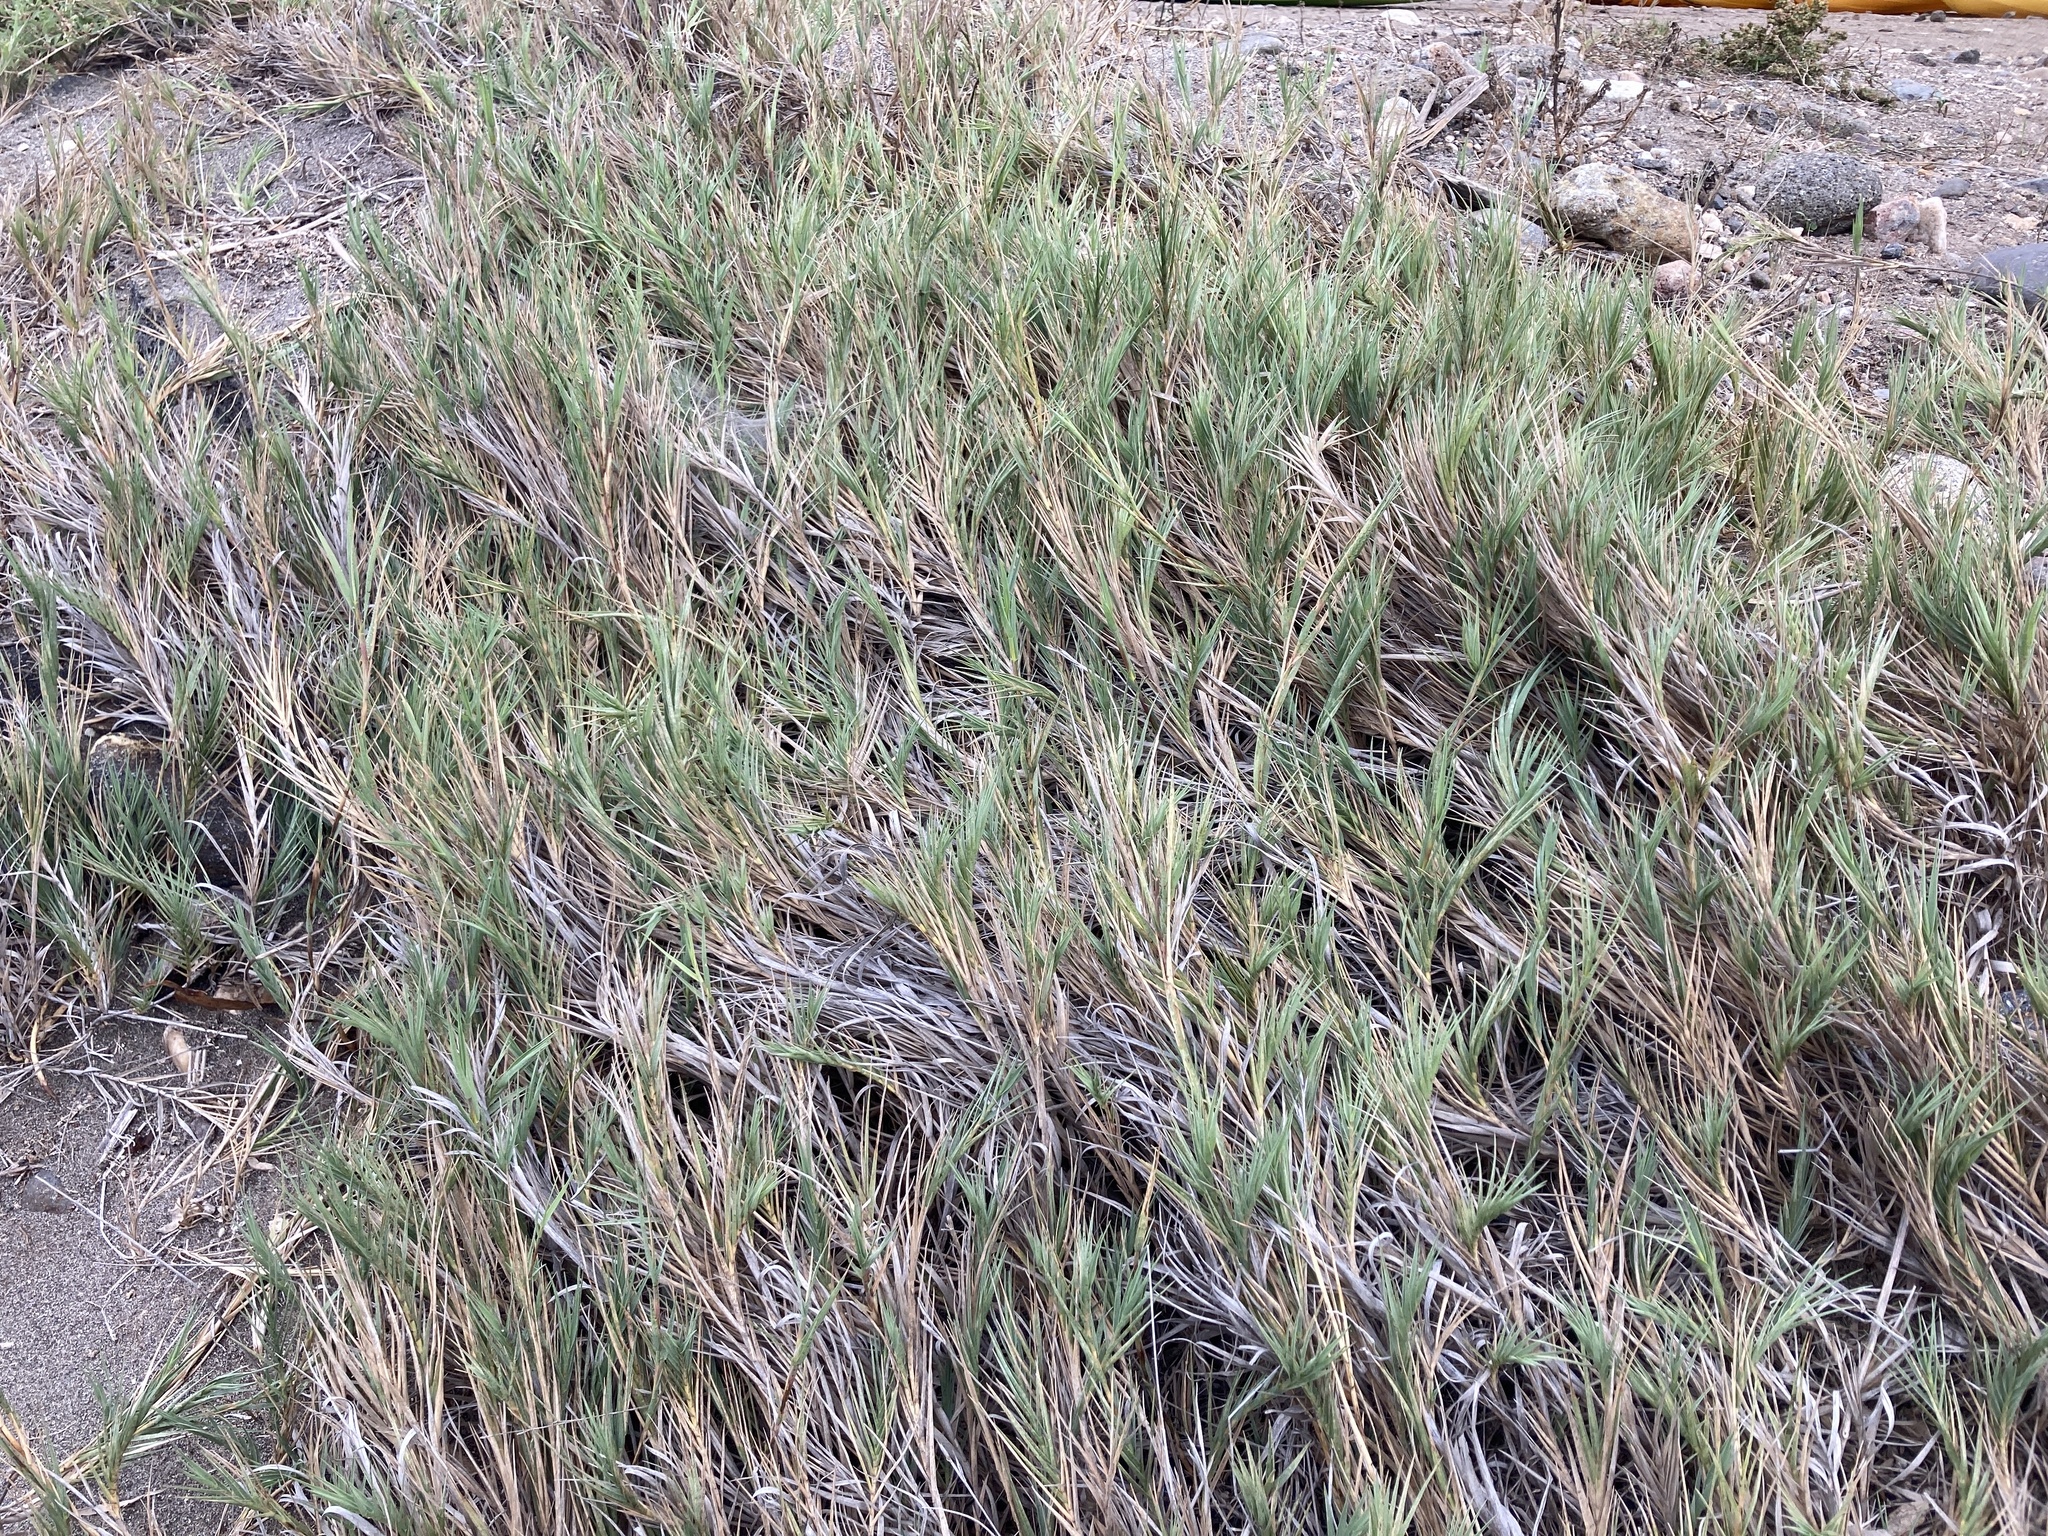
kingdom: Plantae
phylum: Tracheophyta
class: Liliopsida
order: Poales
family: Poaceae
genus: Distichlis
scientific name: Distichlis spicata
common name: Saltgrass
